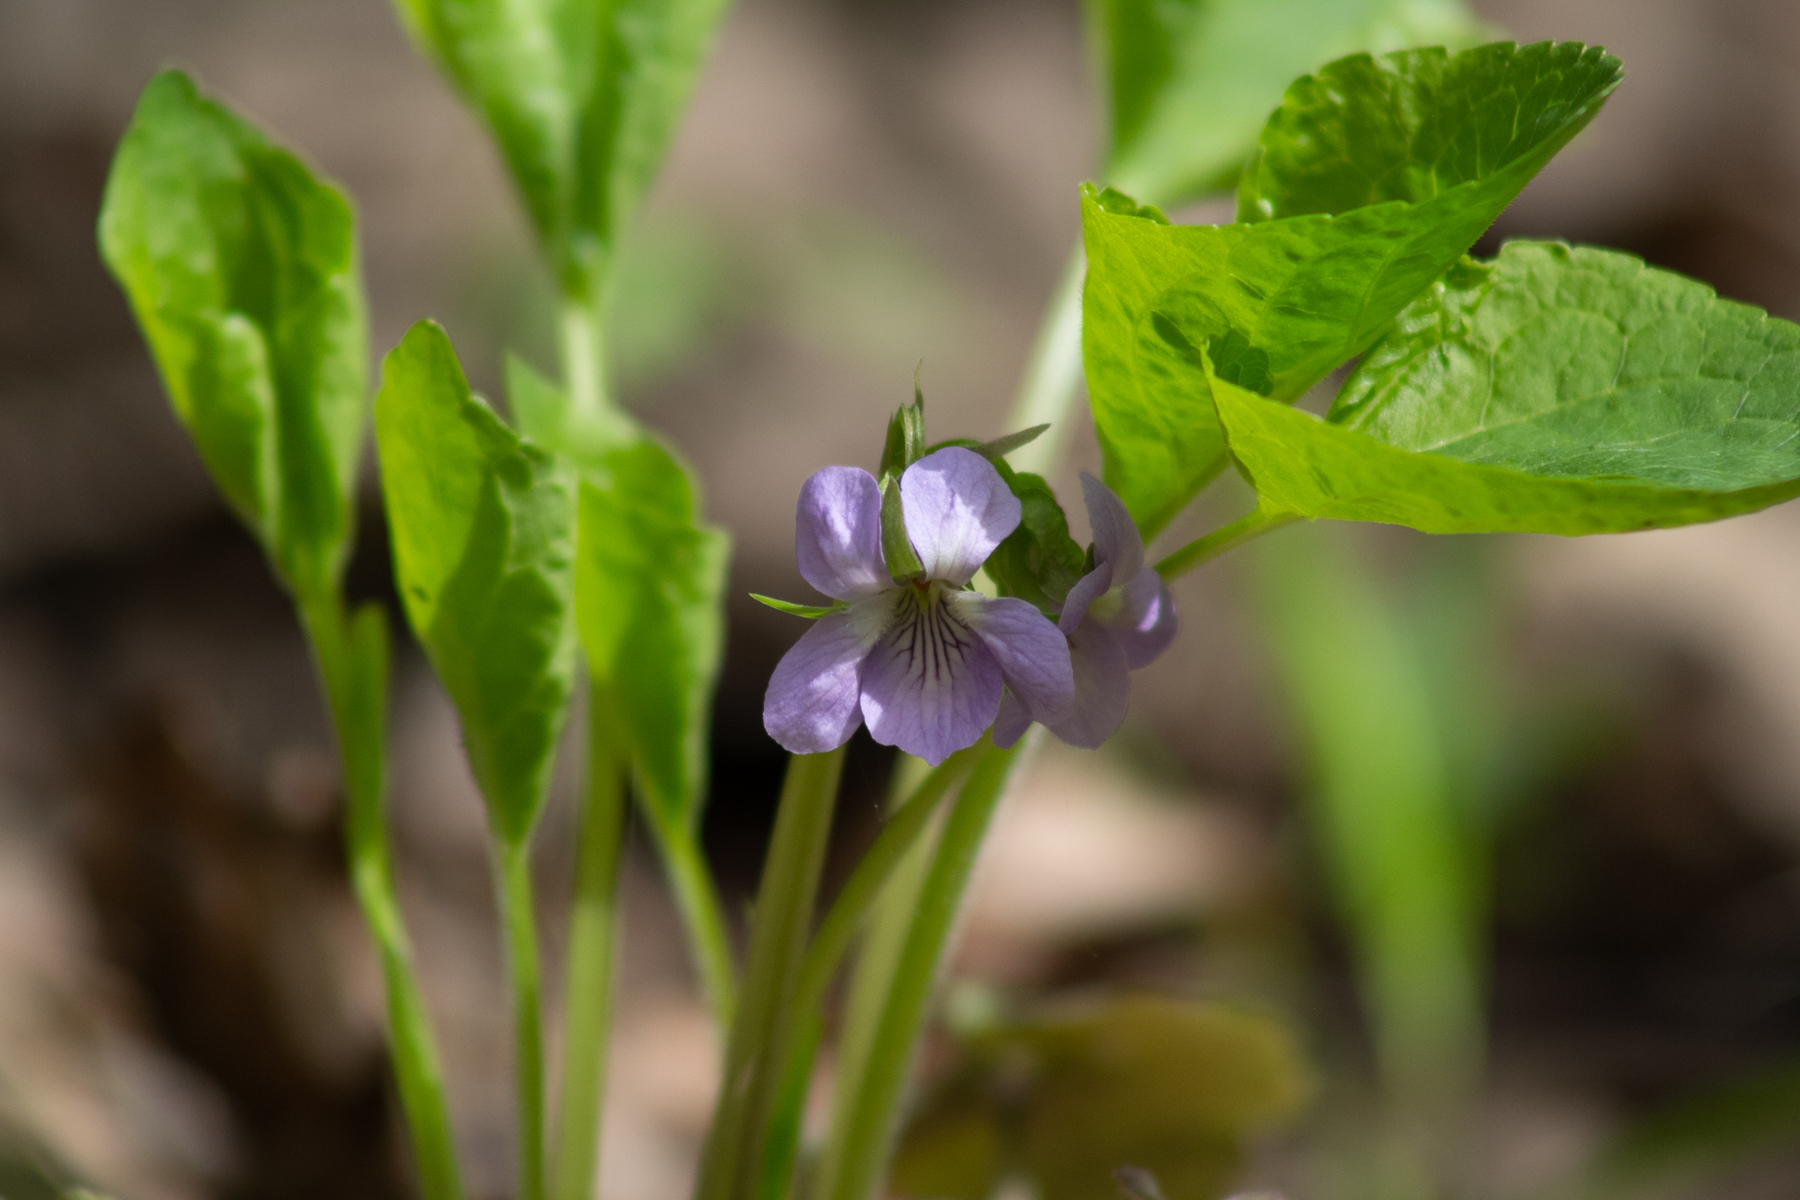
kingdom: Plantae
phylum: Tracheophyta
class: Magnoliopsida
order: Malpighiales
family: Violaceae
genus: Viola
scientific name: Viola mirabilis
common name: Wonder violet
